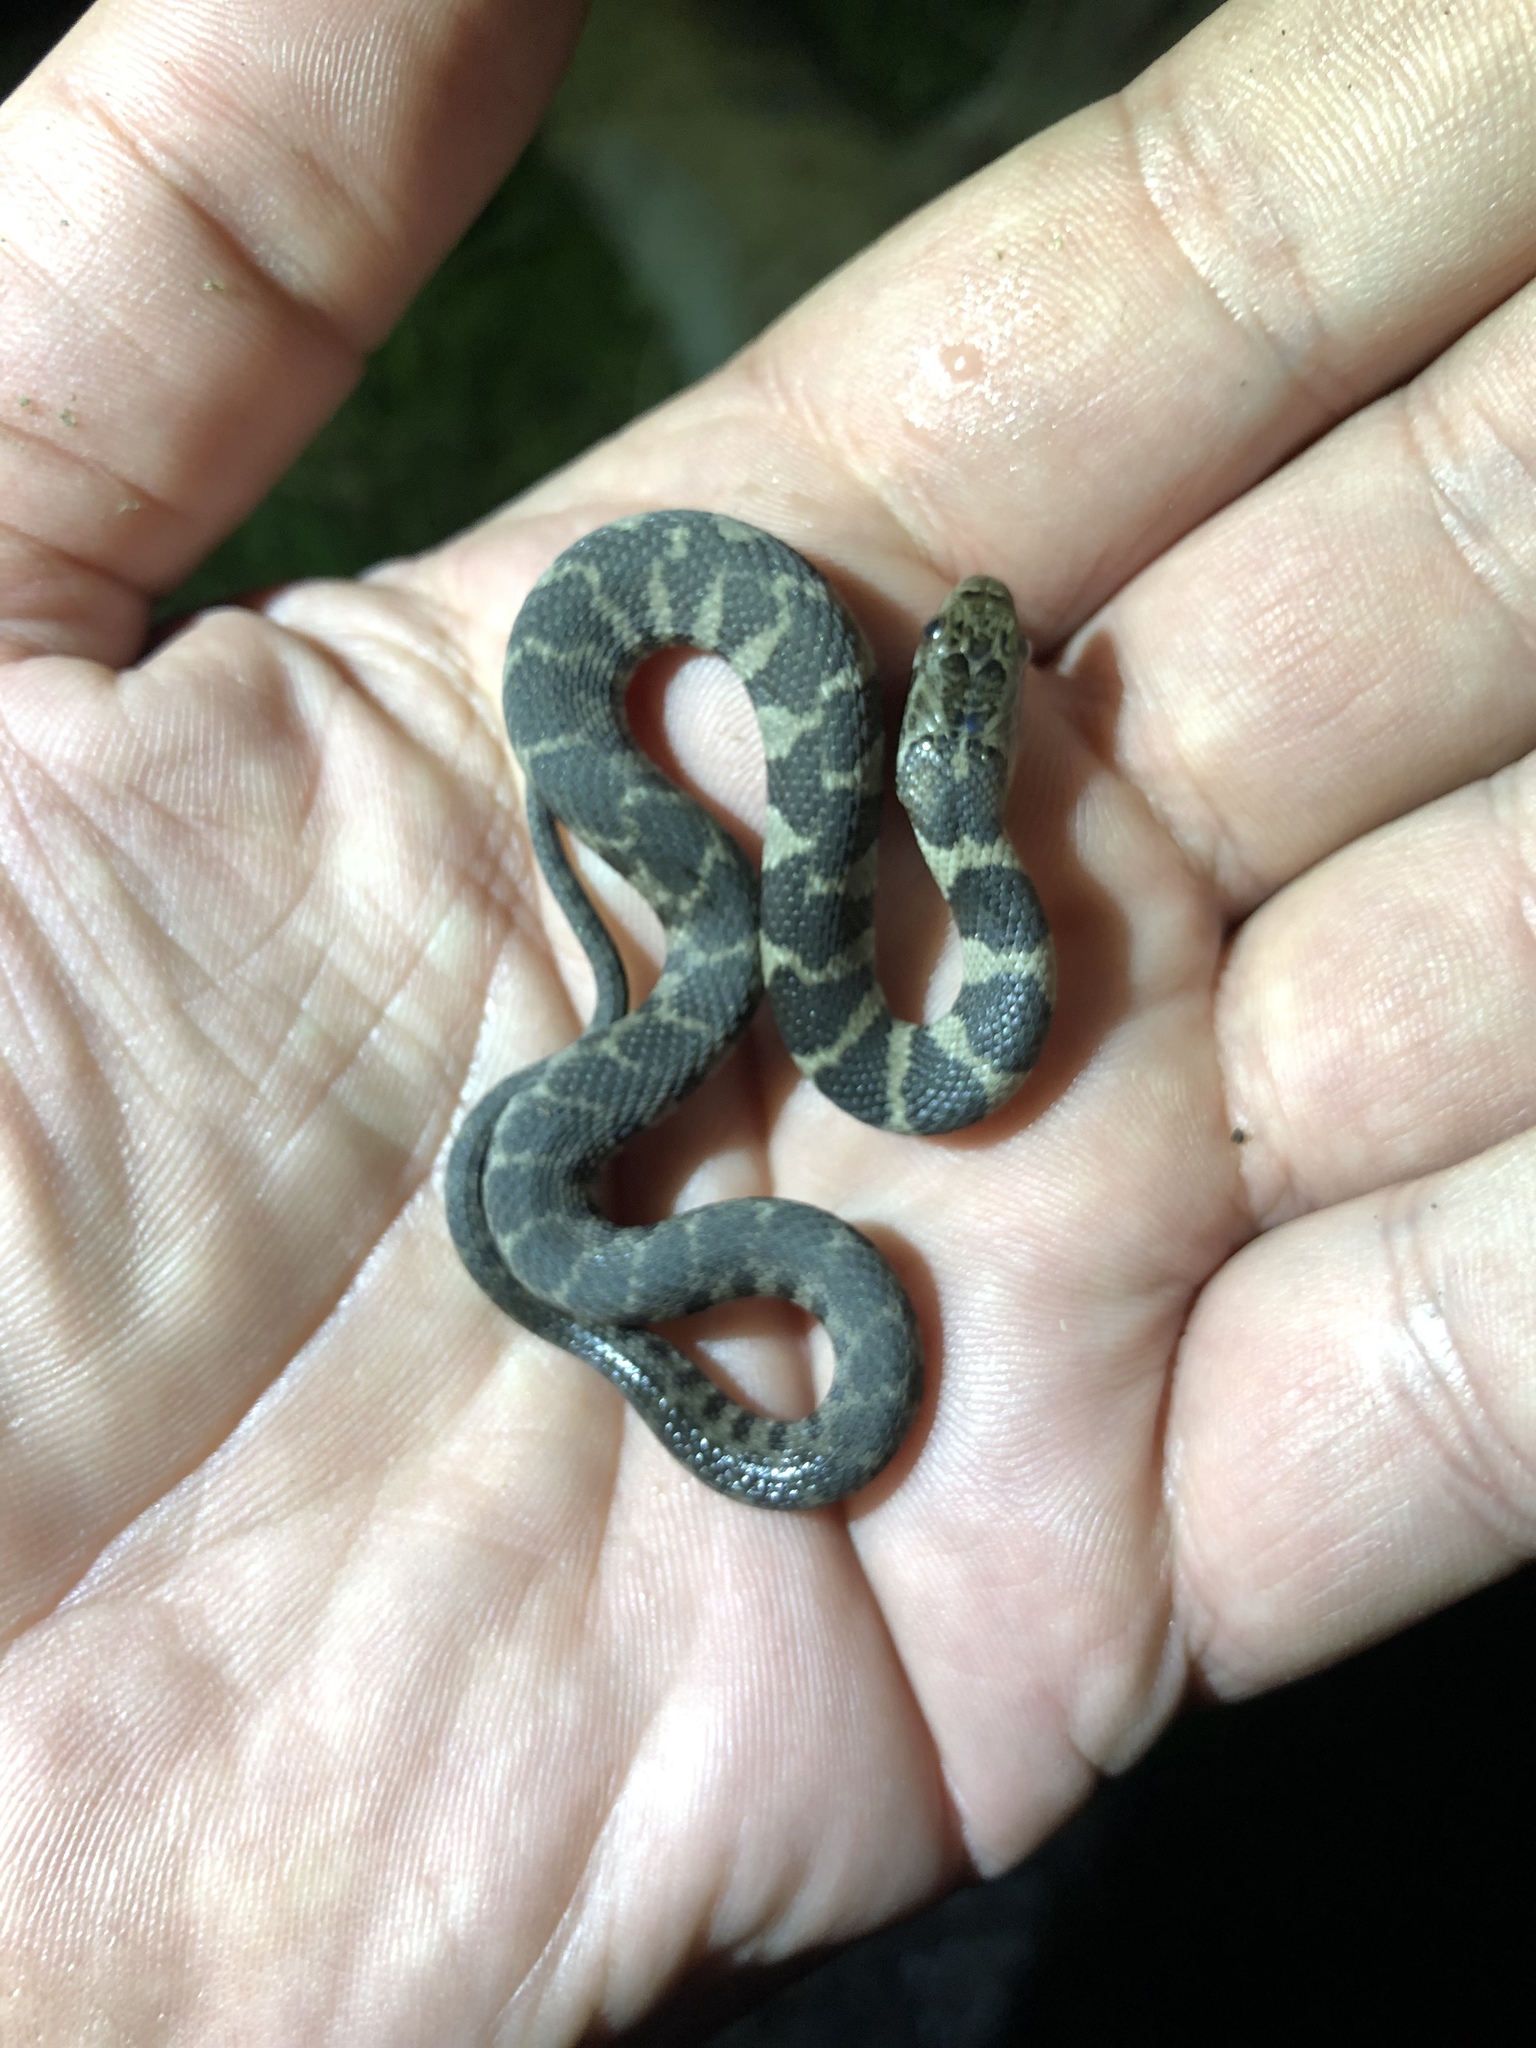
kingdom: Animalia
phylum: Chordata
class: Squamata
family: Colubridae
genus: Nerodia
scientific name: Nerodia sipedon
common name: Northern water snake
